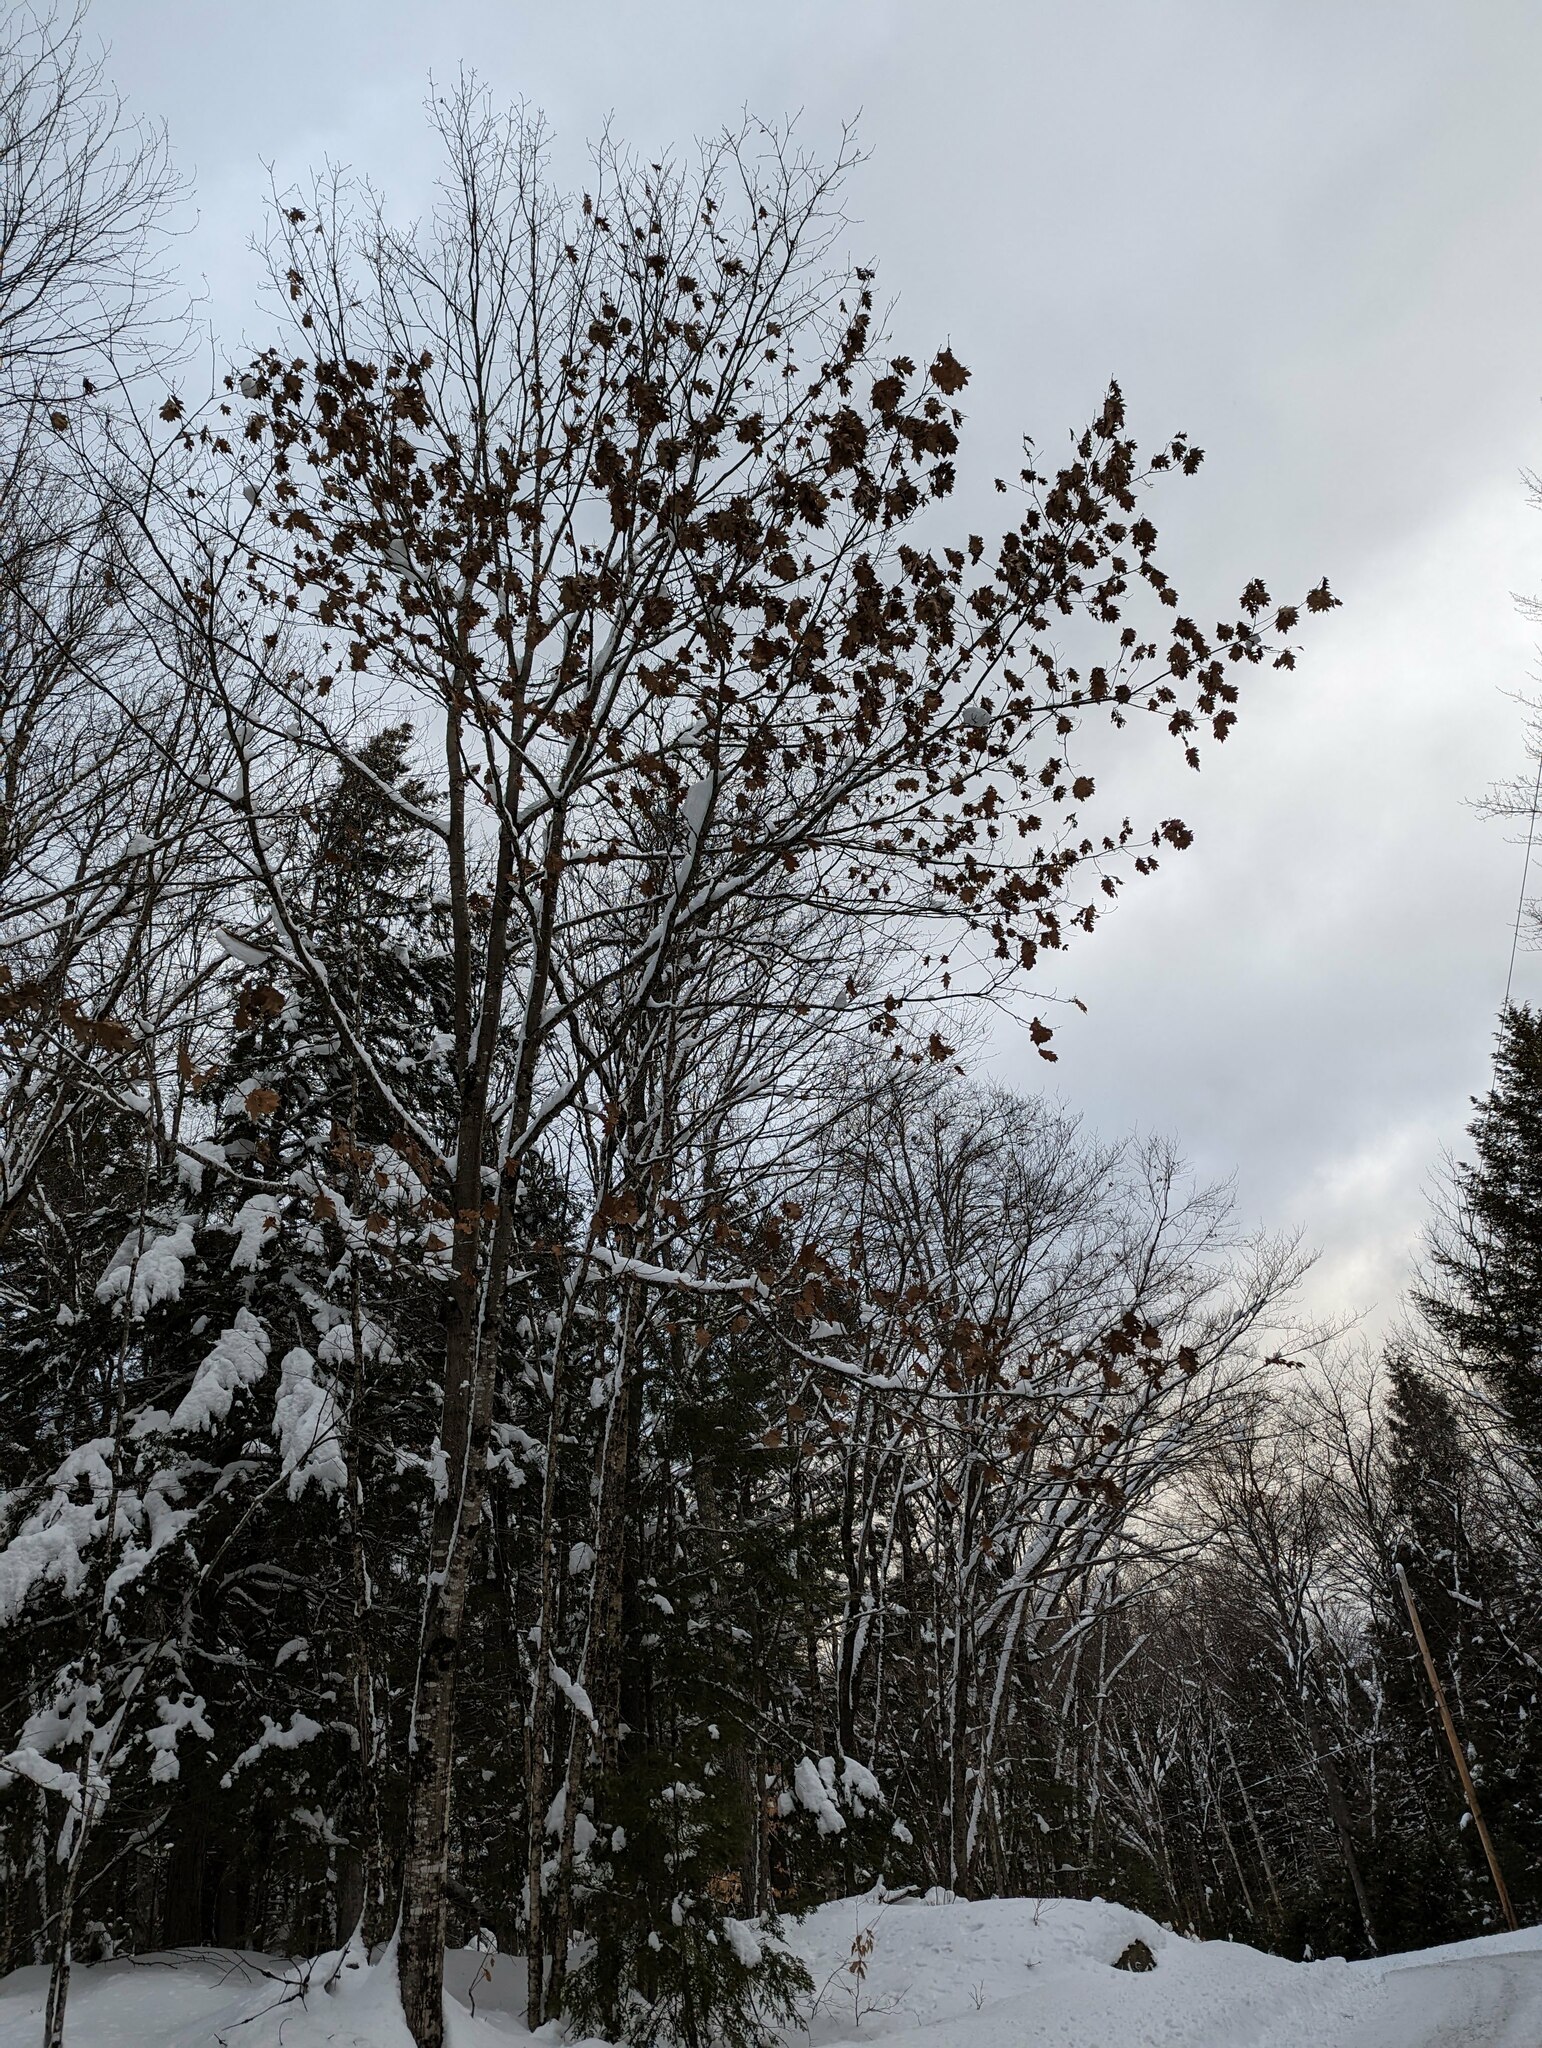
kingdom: Plantae
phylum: Tracheophyta
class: Magnoliopsida
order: Fagales
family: Fagaceae
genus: Quercus
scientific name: Quercus rubra
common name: Red oak
